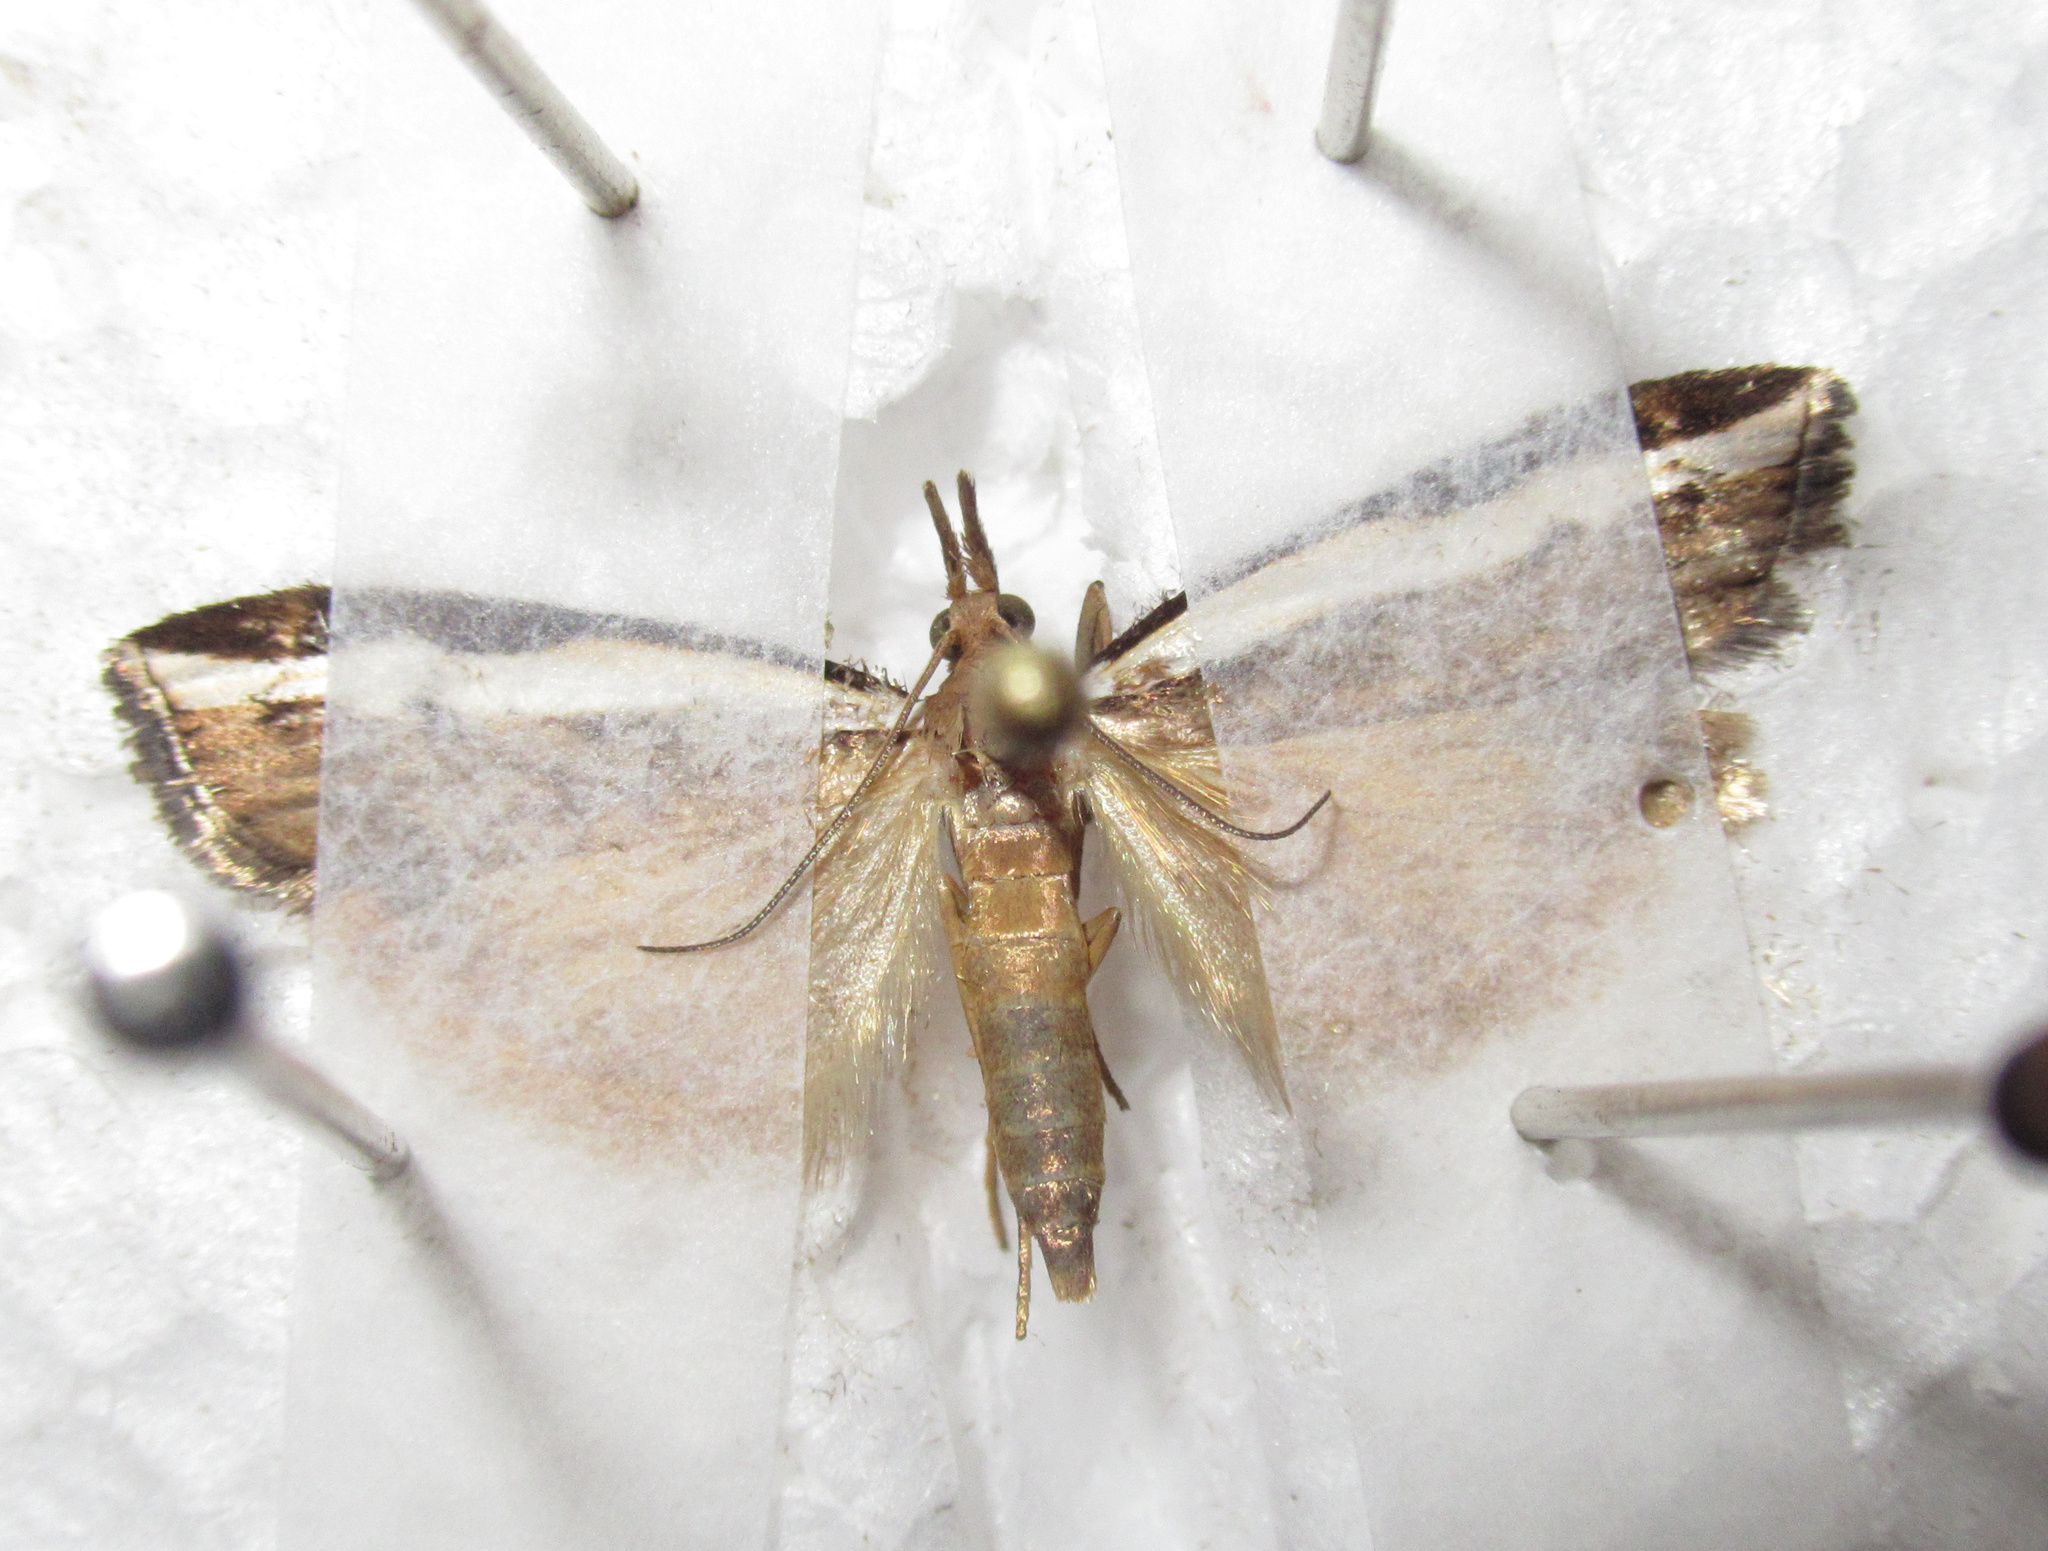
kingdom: Animalia
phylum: Arthropoda
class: Insecta
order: Lepidoptera
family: Crambidae
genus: Orocrambus
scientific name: Orocrambus flexuosellus
